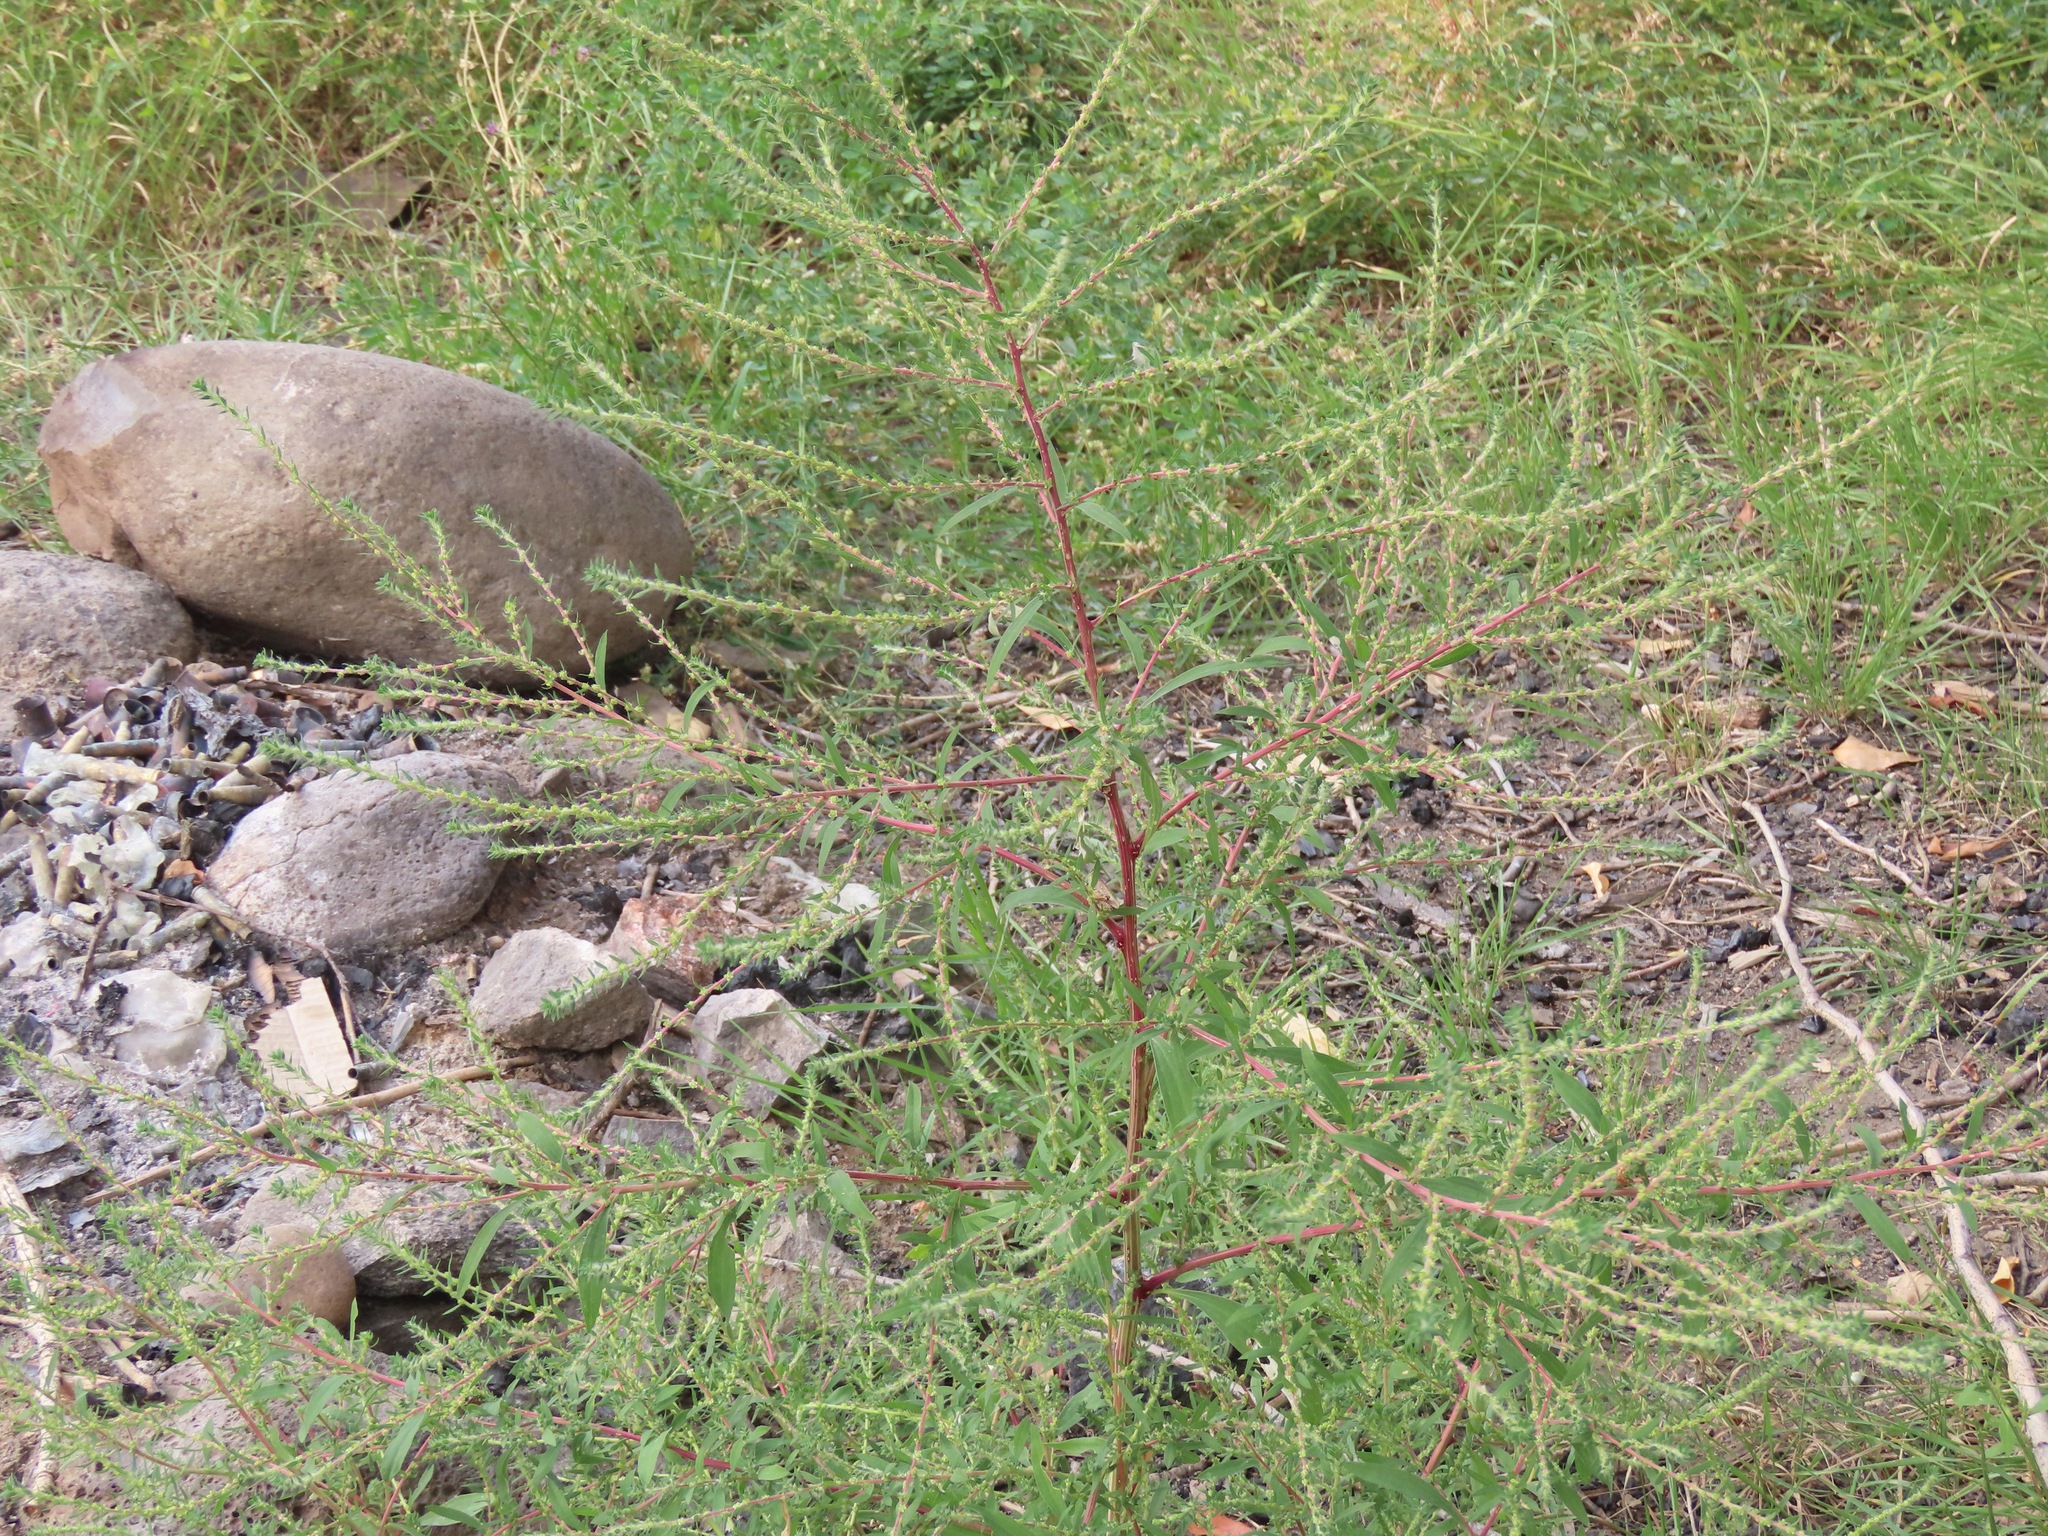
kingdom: Plantae
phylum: Tracheophyta
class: Magnoliopsida
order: Caryophyllales
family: Amaranthaceae
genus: Bassia
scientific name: Bassia scoparia
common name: Belvedere
